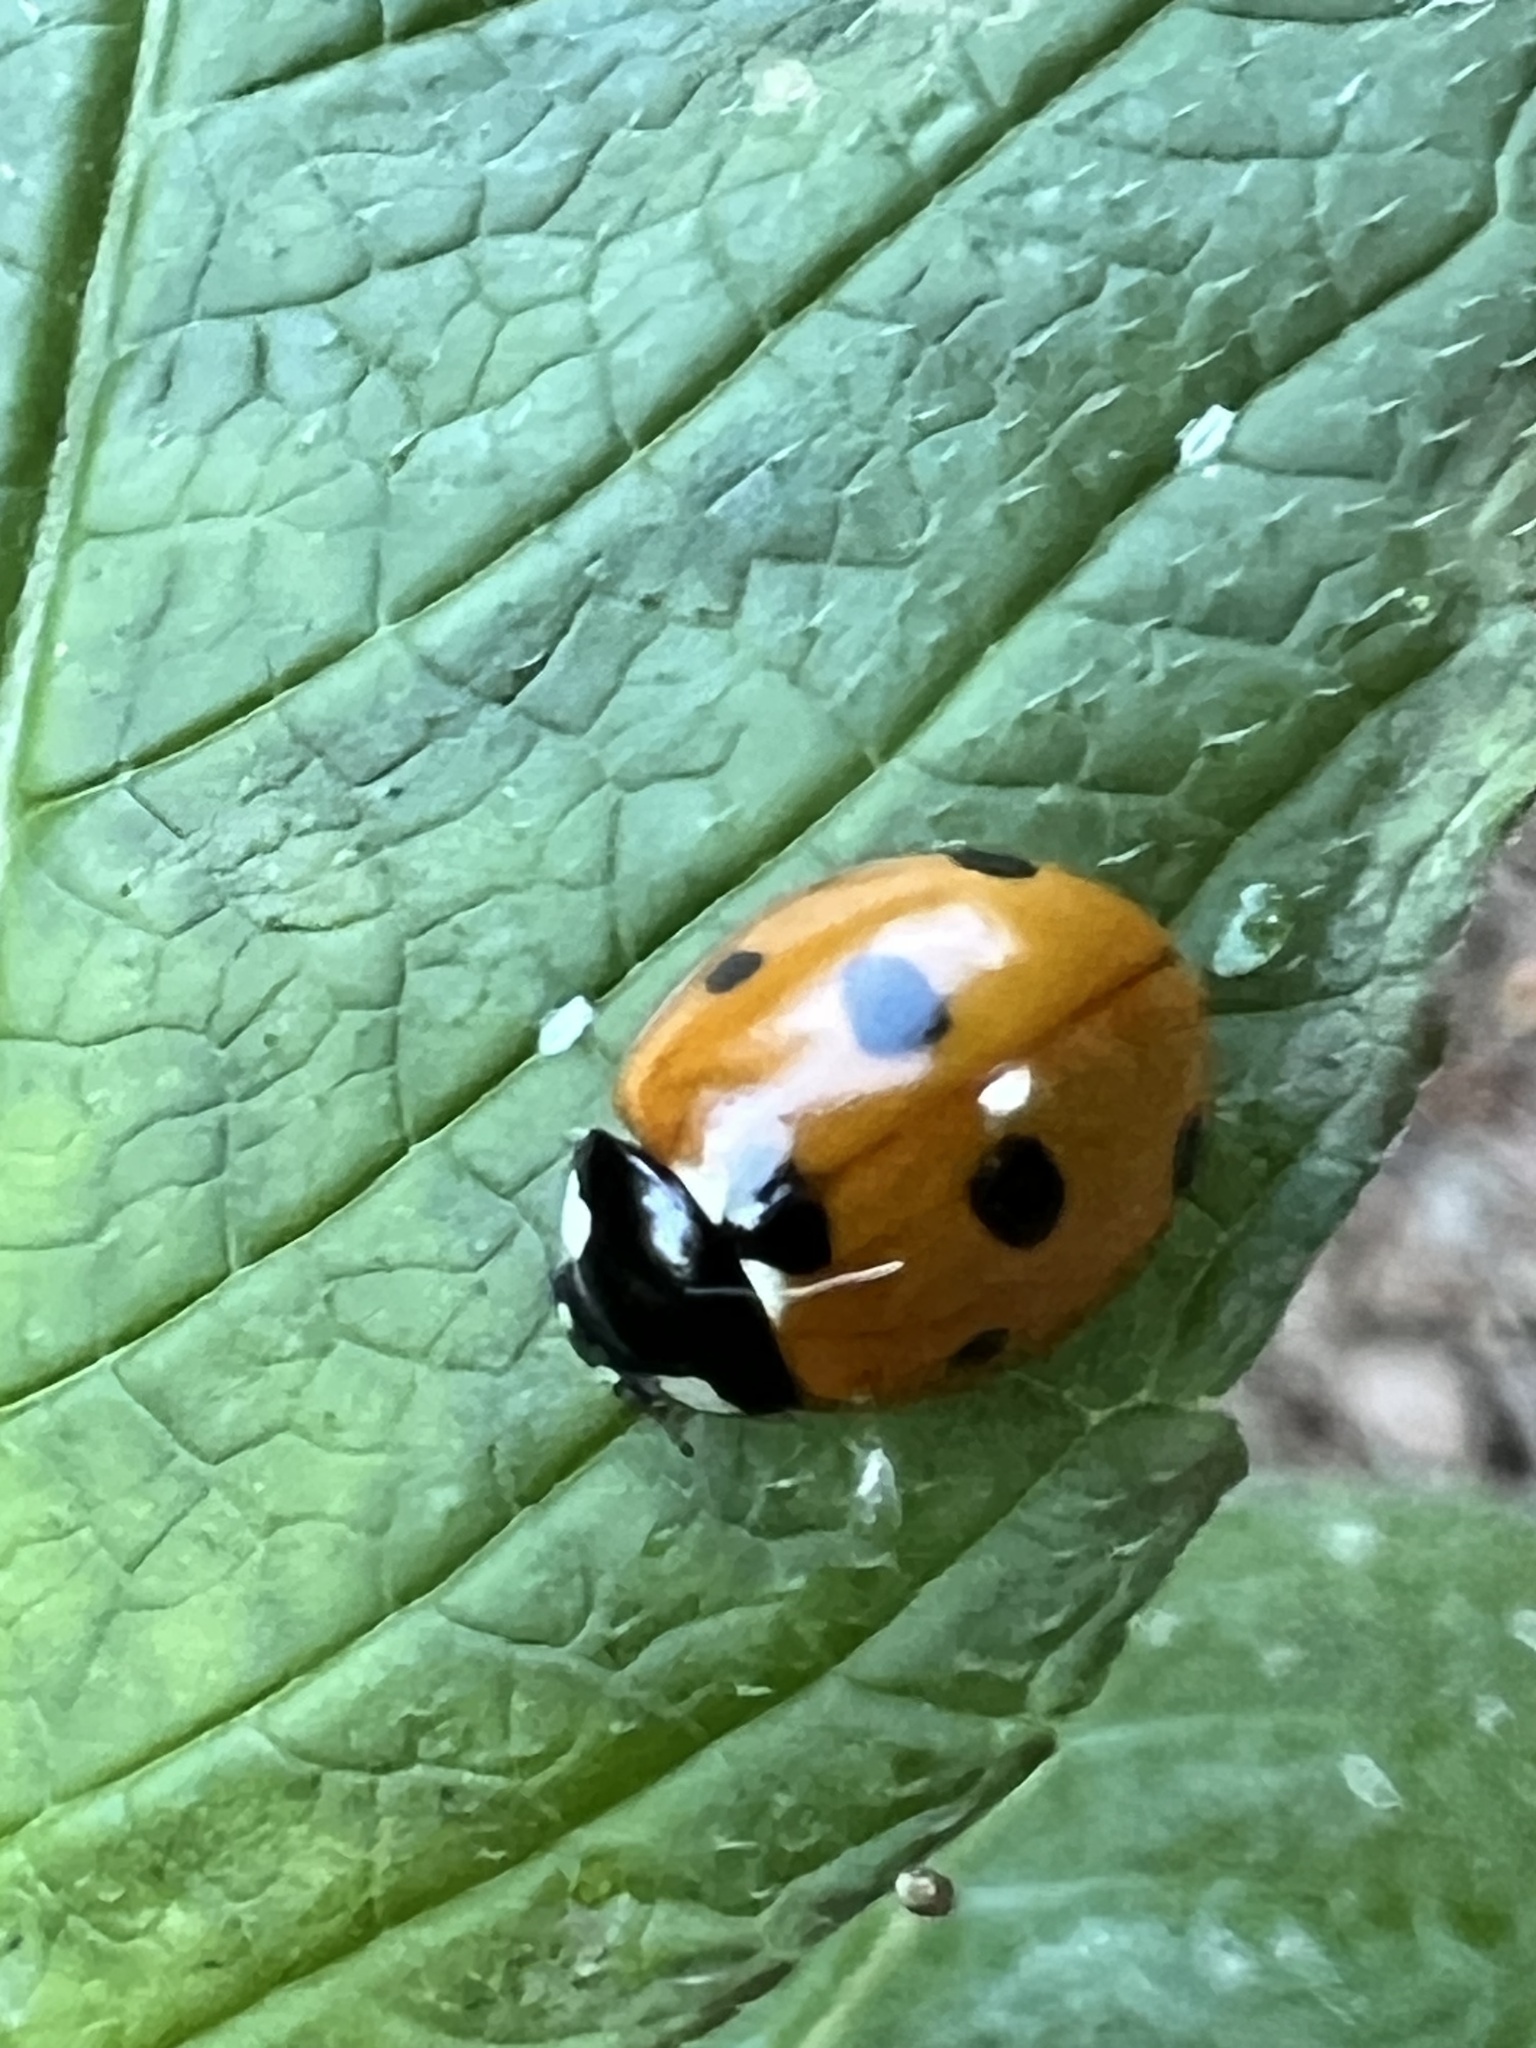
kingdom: Animalia
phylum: Arthropoda
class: Insecta
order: Coleoptera
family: Coccinellidae
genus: Coccinella
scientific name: Coccinella septempunctata
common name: Sevenspotted lady beetle
